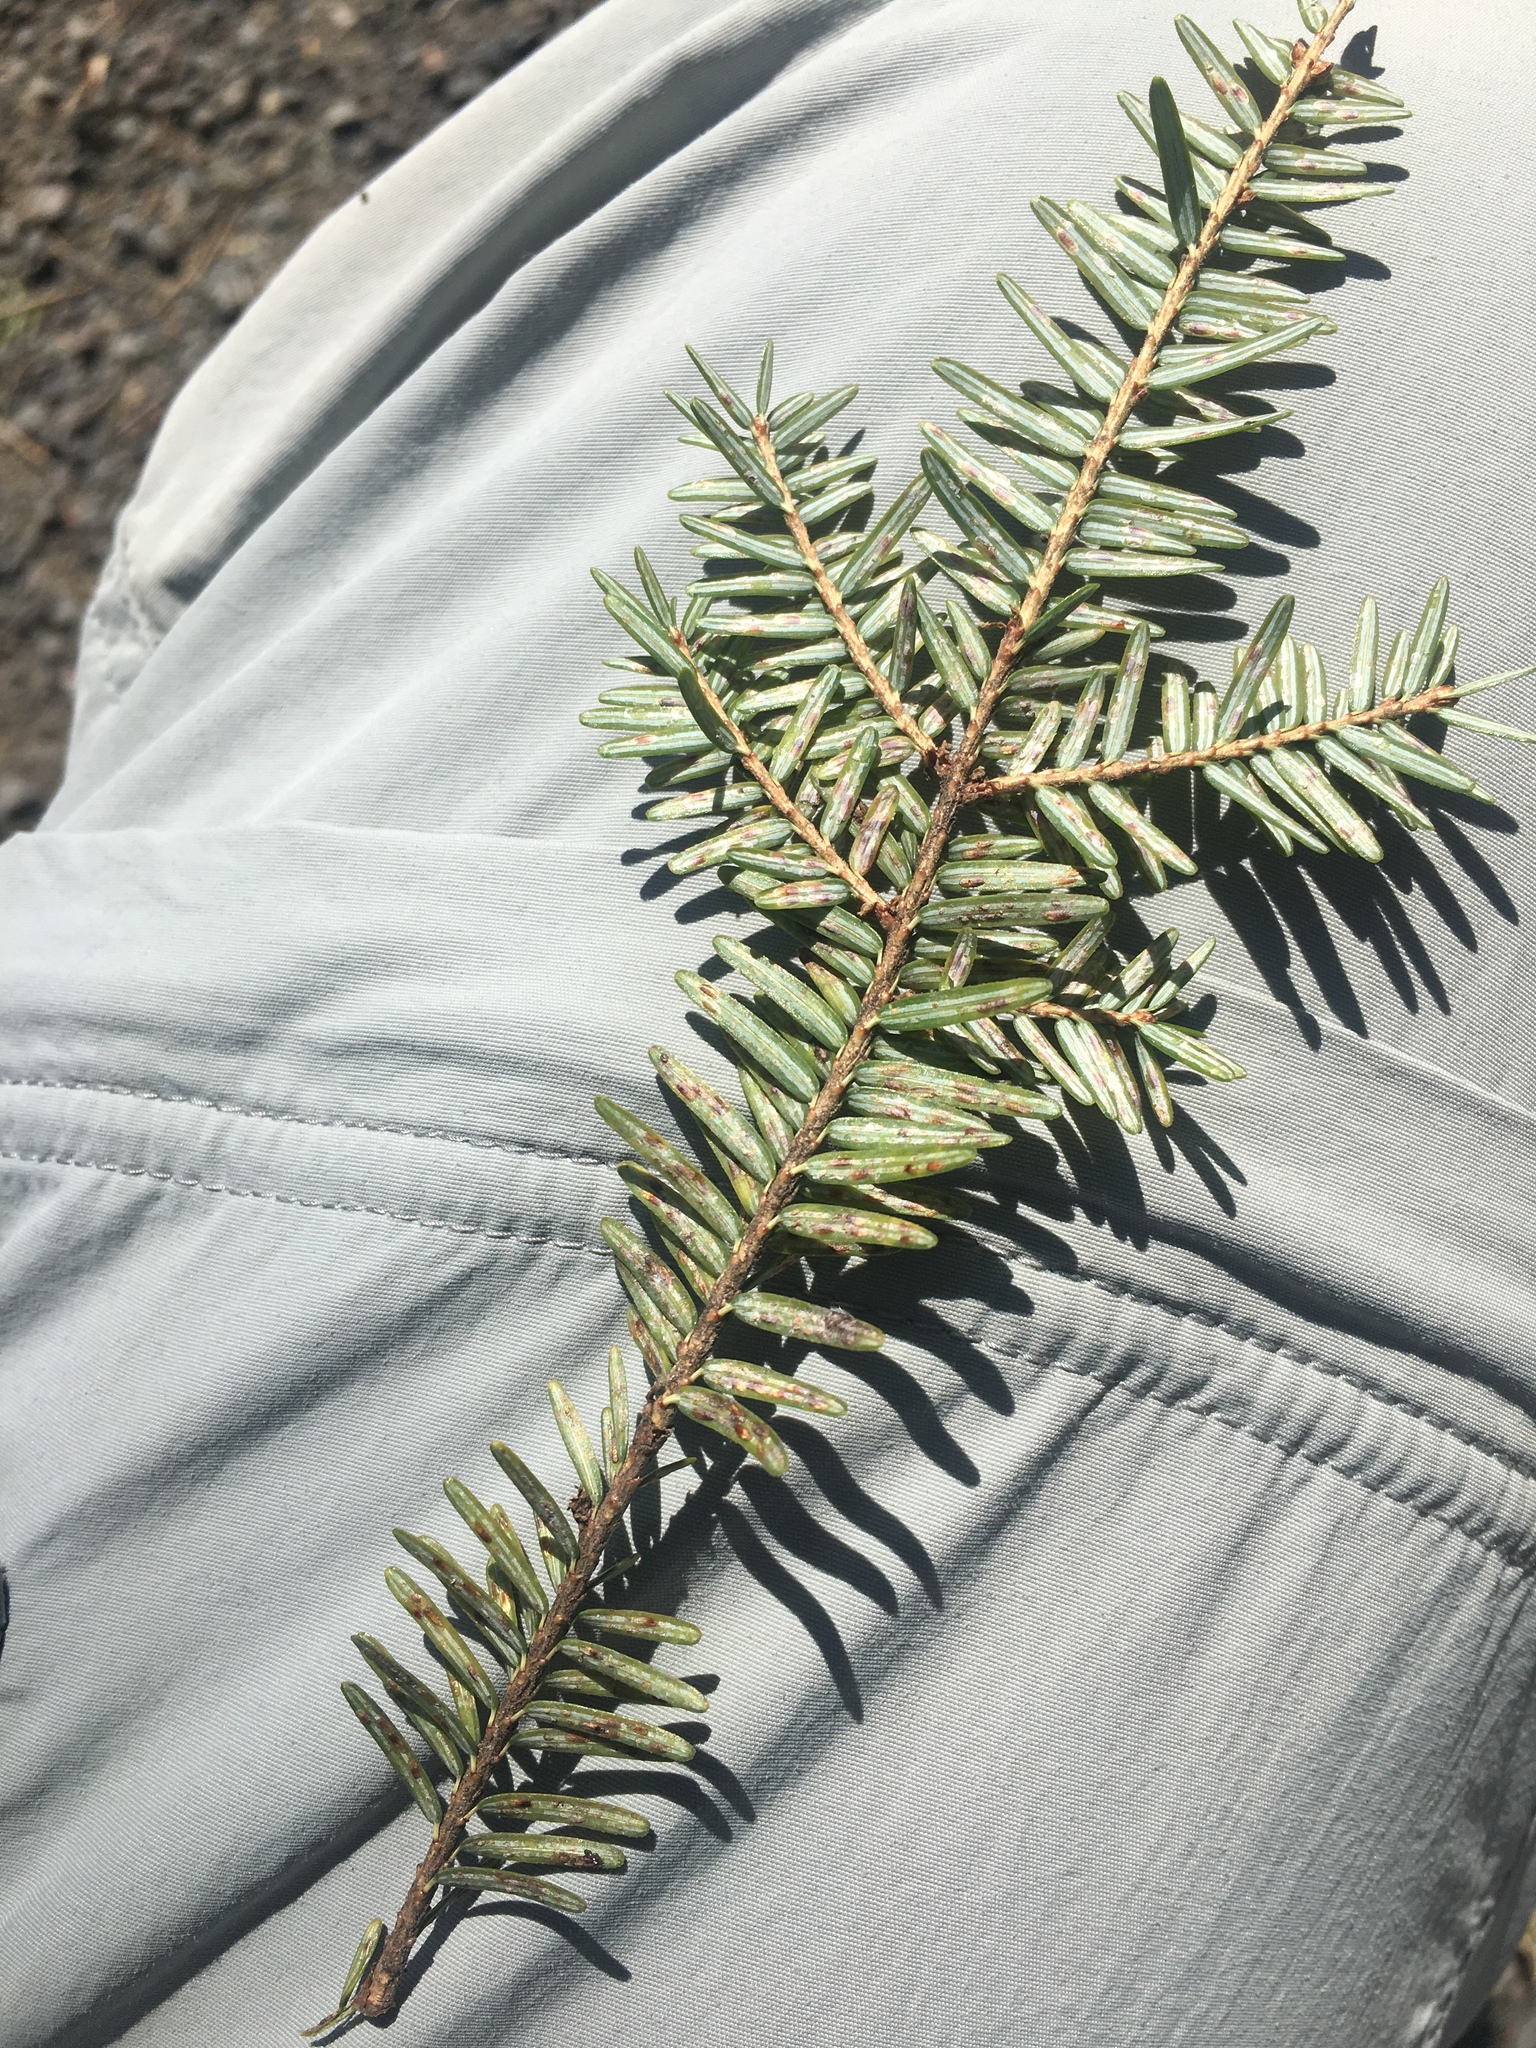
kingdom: Plantae
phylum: Tracheophyta
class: Pinopsida
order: Pinales
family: Pinaceae
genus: Tsuga
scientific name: Tsuga canadensis
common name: Eastern hemlock
